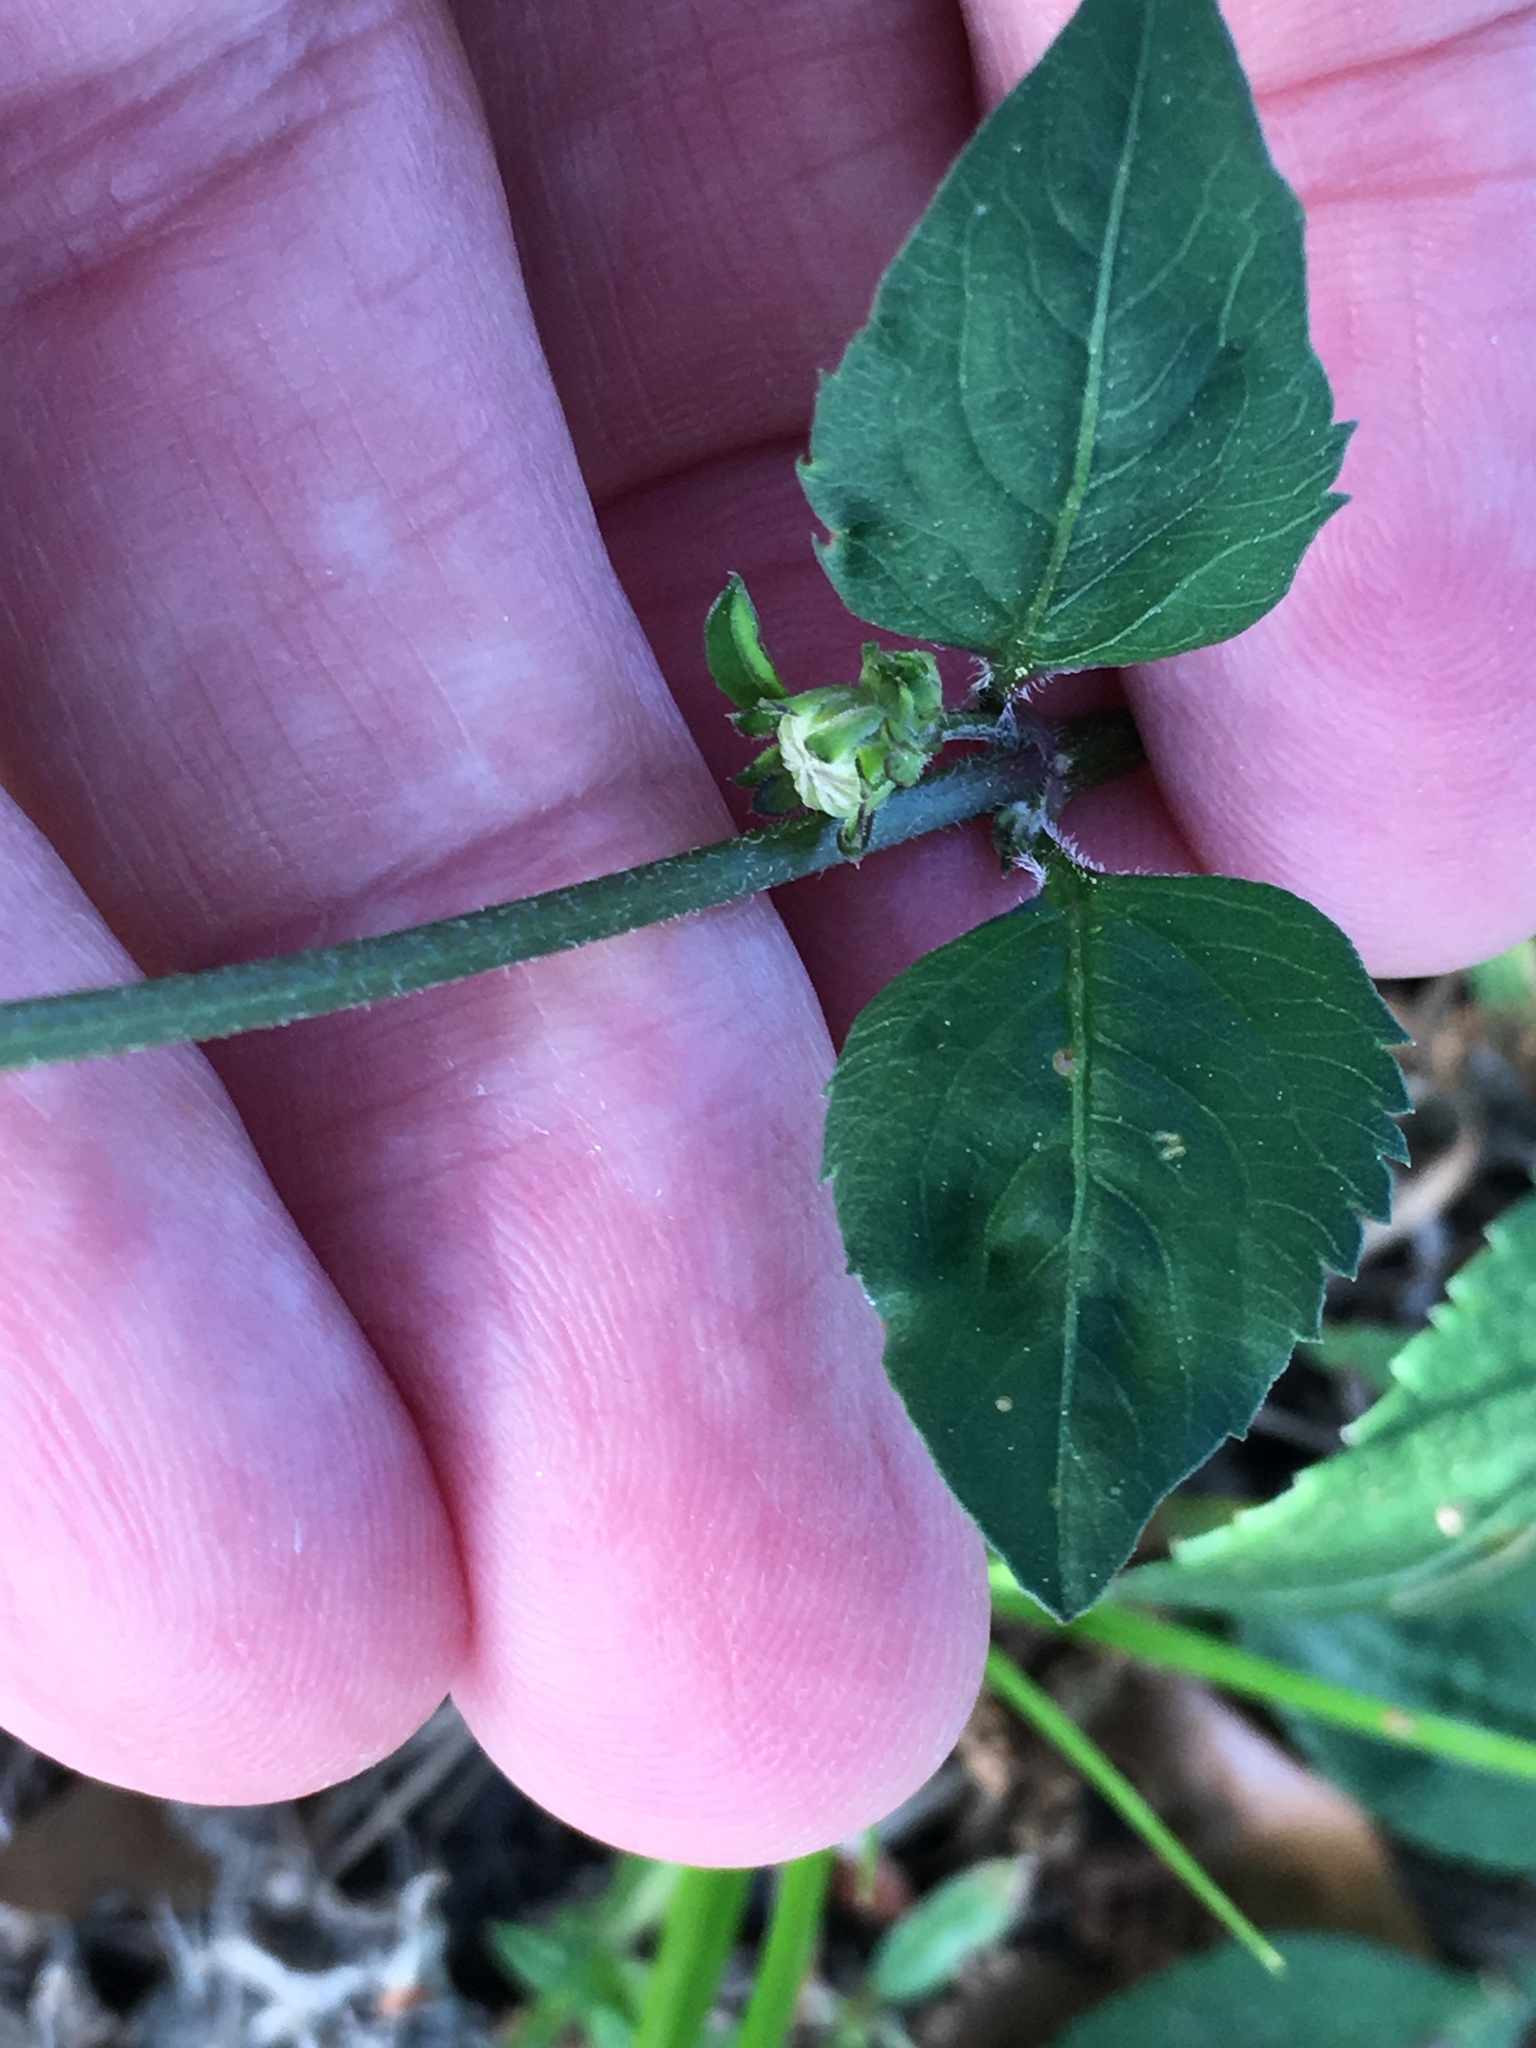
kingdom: Plantae
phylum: Tracheophyta
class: Magnoliopsida
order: Asterales
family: Asteraceae
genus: Bidens
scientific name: Bidens alba
